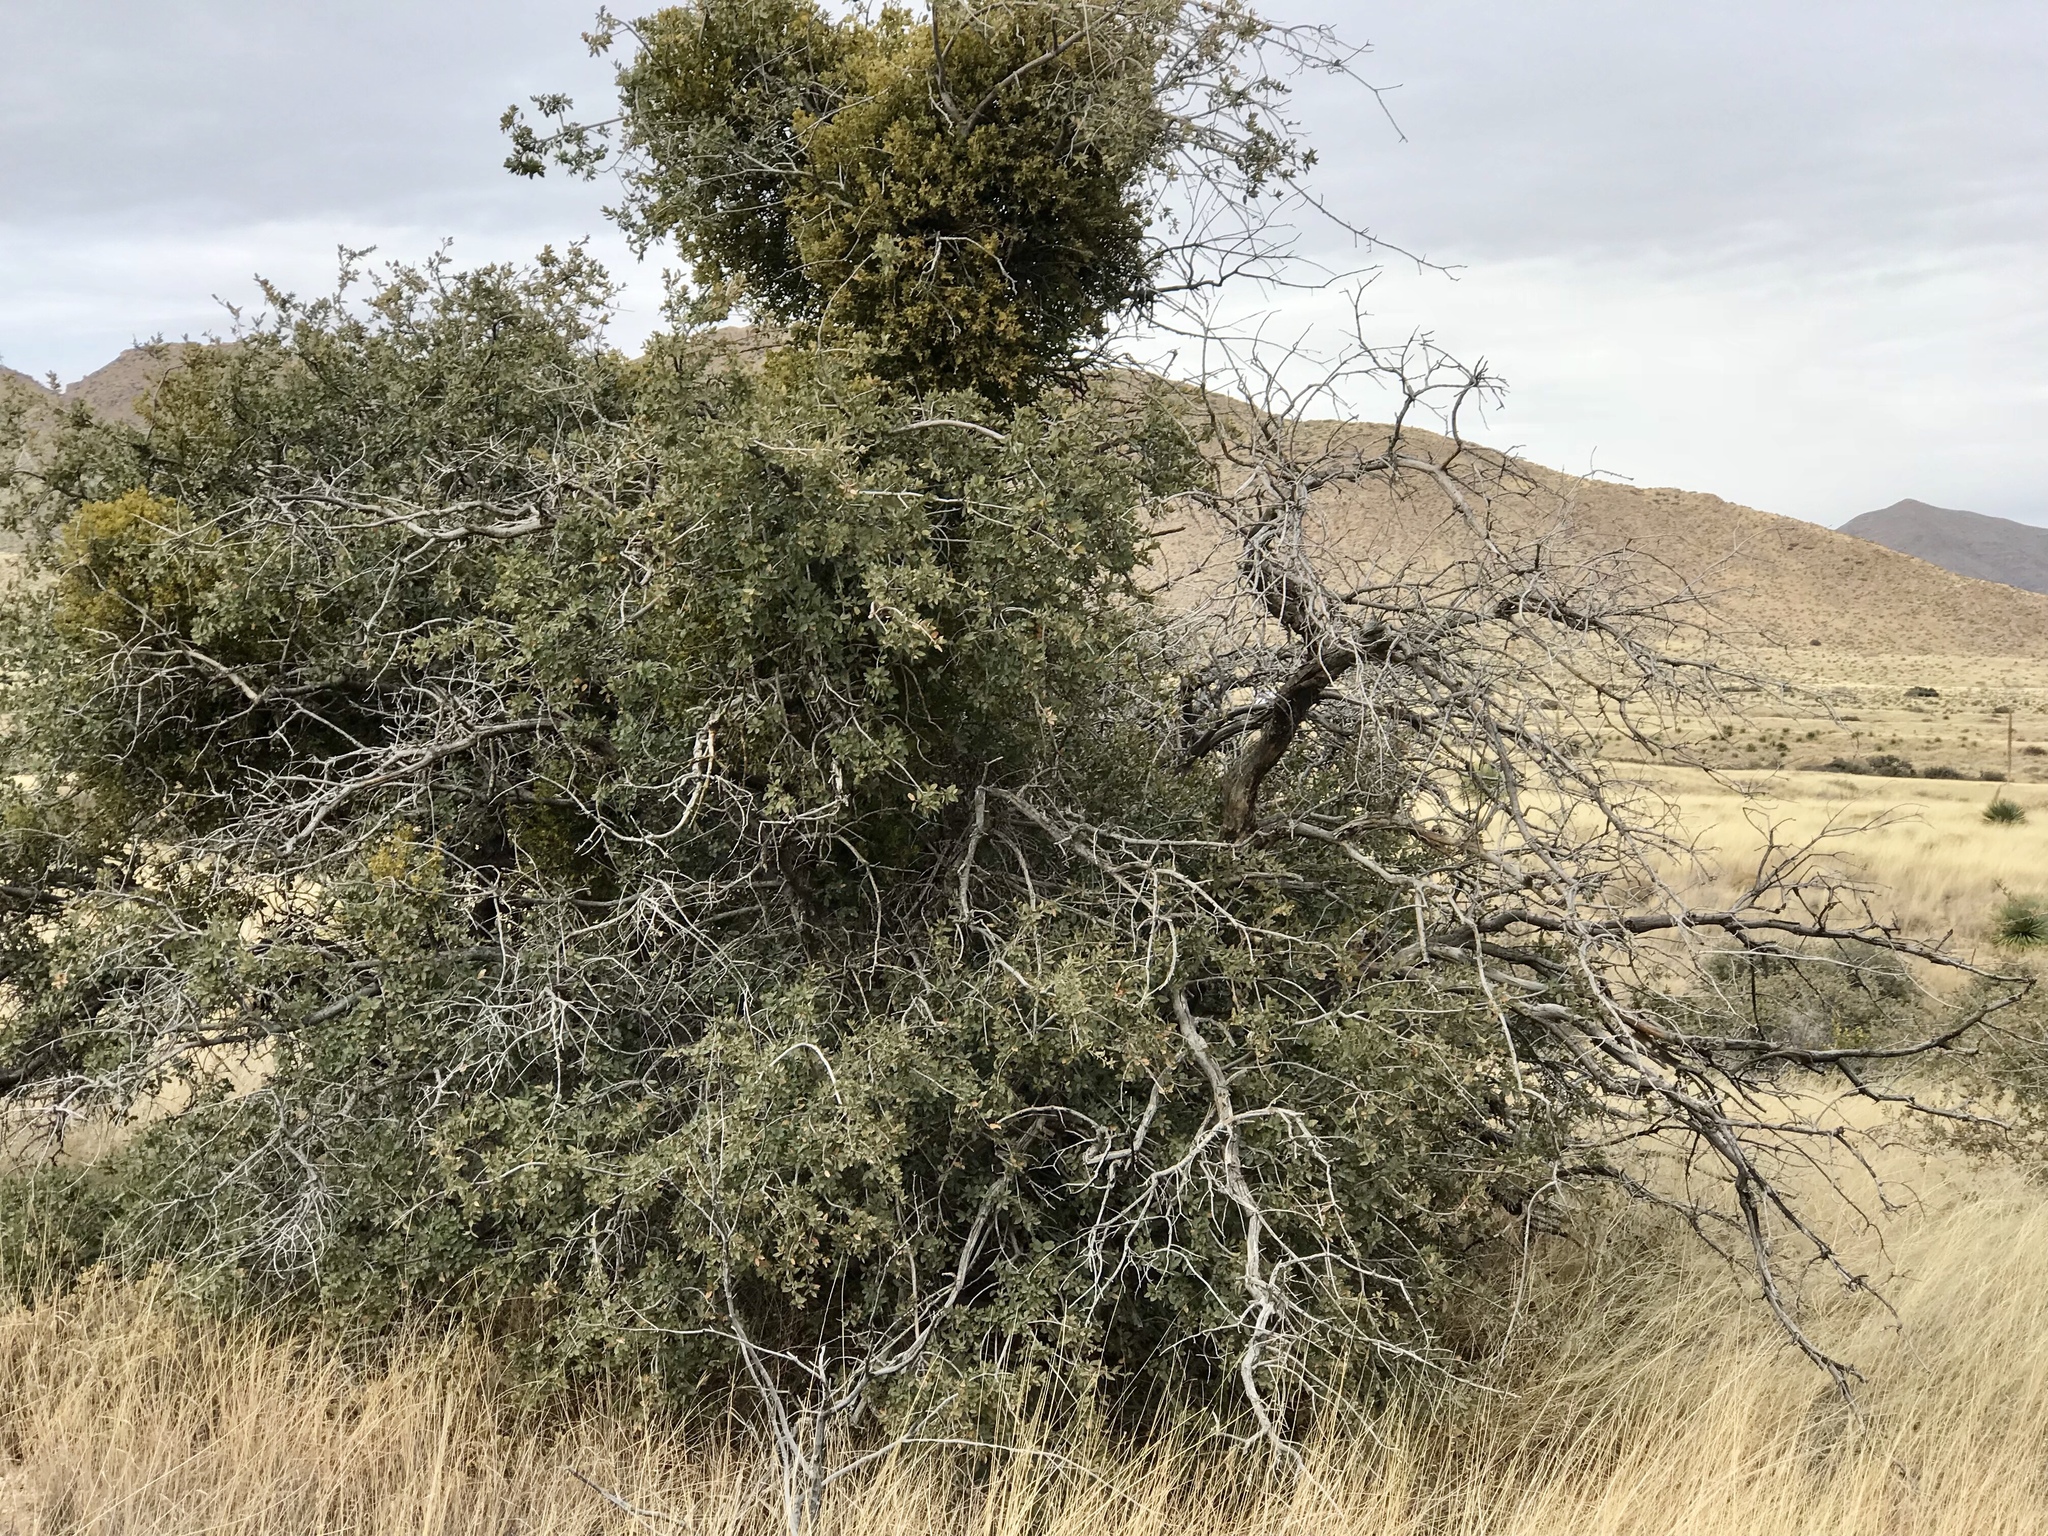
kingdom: Plantae
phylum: Tracheophyta
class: Magnoliopsida
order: Santalales
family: Viscaceae
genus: Phoradendron
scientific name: Phoradendron coryae
